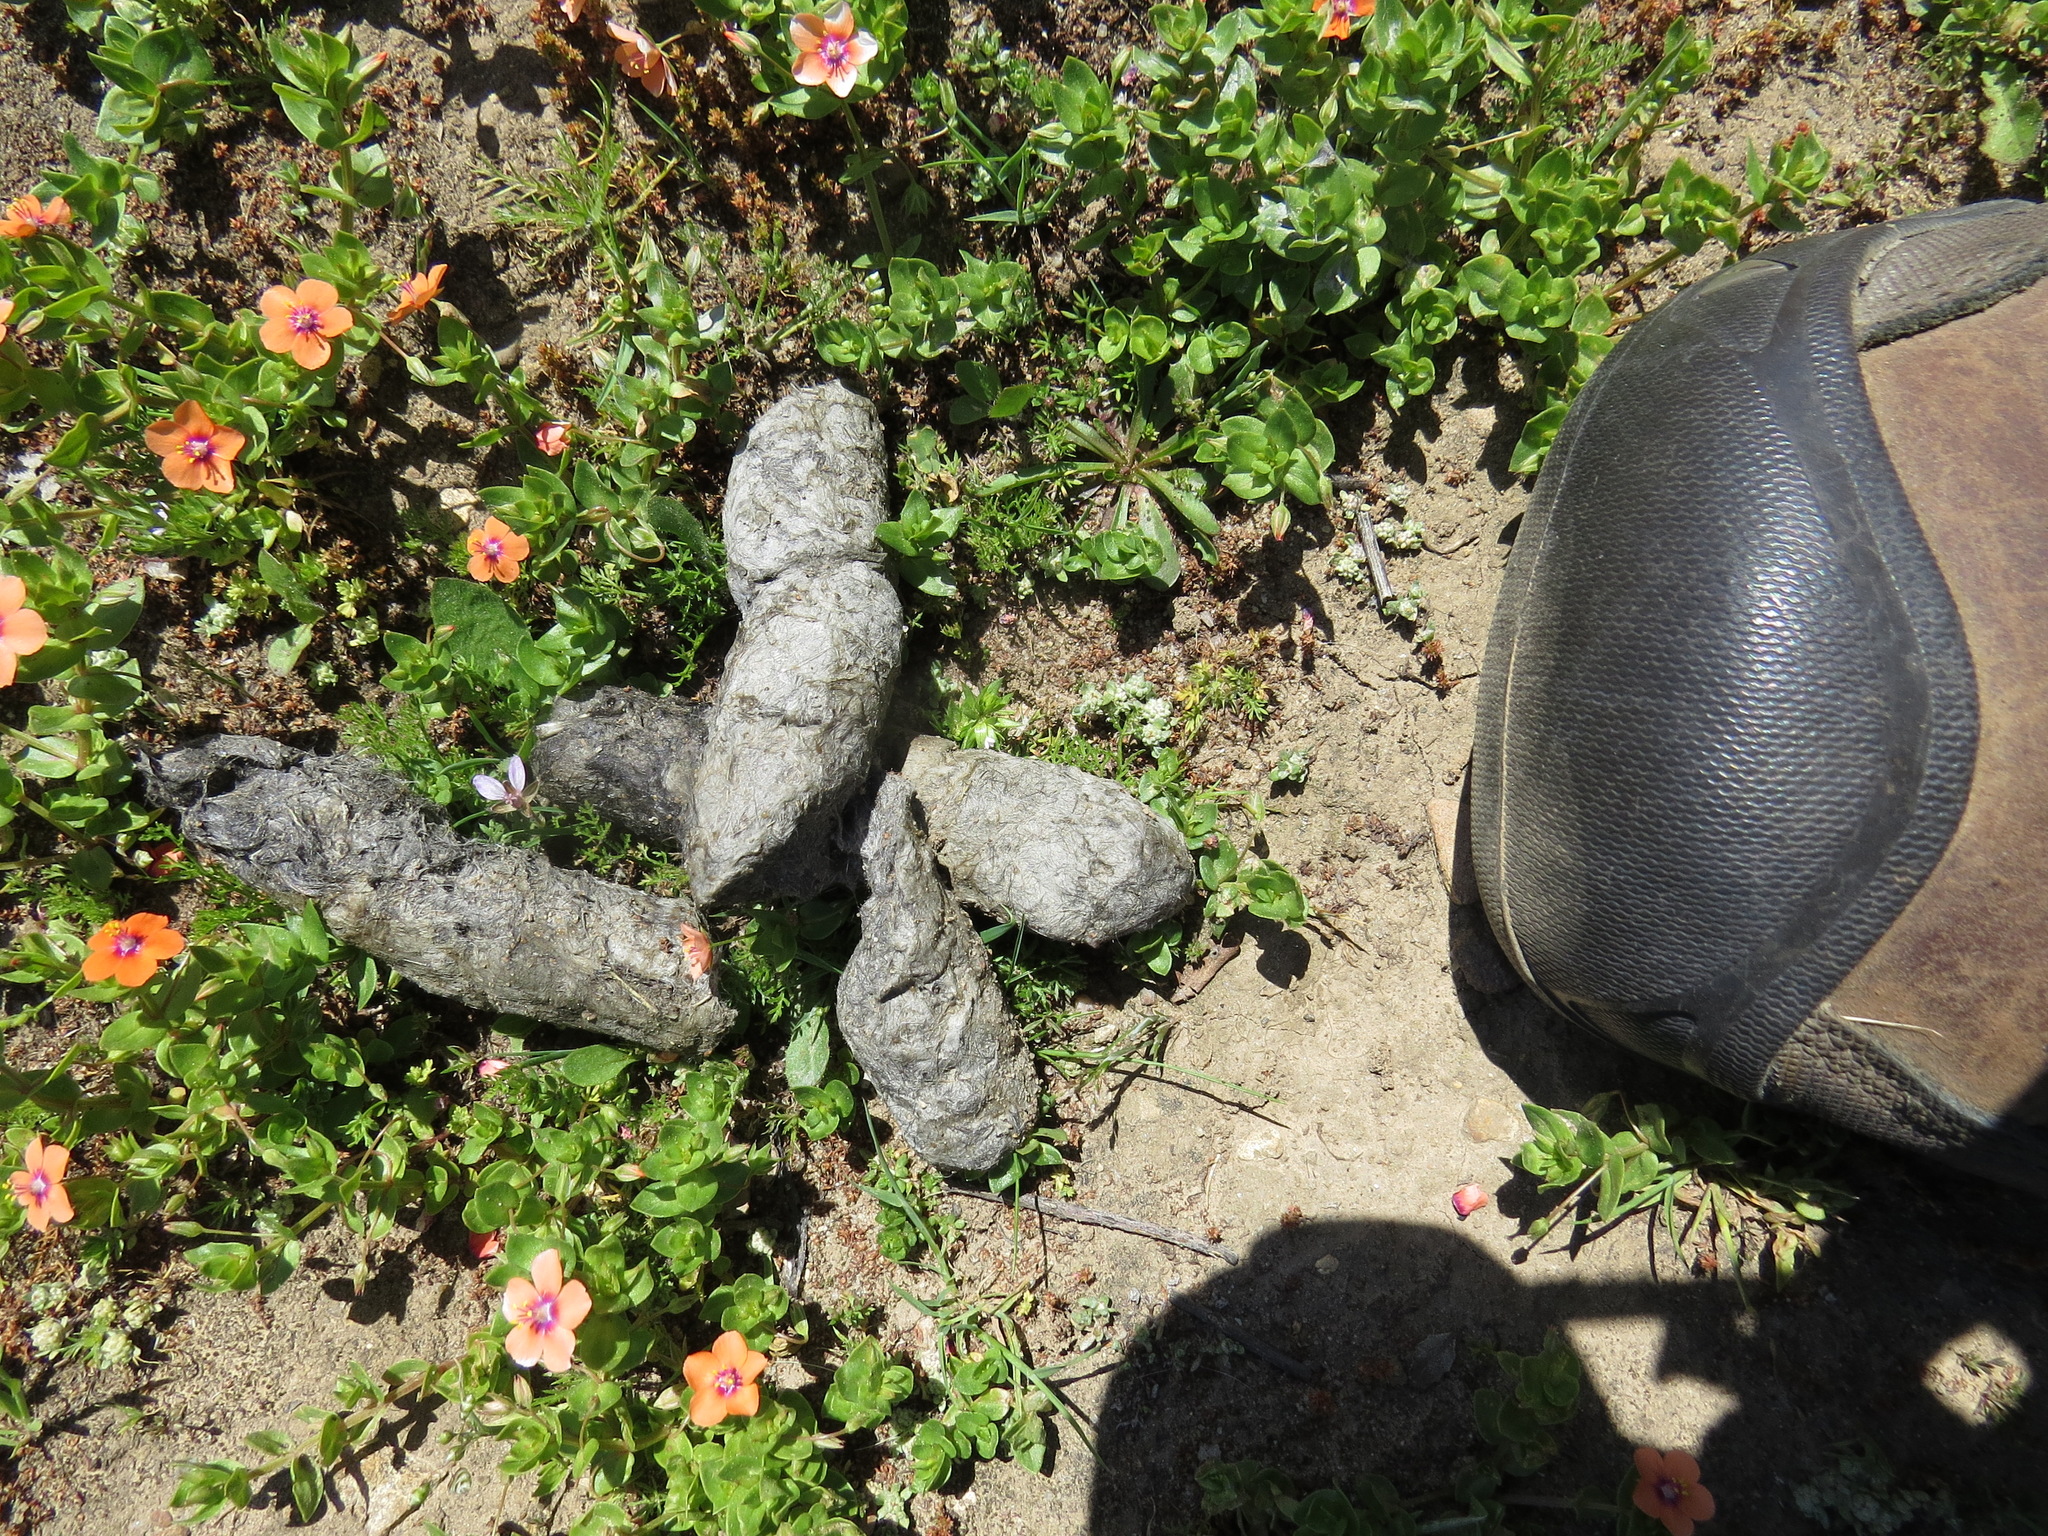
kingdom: Animalia
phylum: Chordata
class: Mammalia
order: Carnivora
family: Canidae
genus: Canis
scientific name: Canis latrans
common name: Coyote
